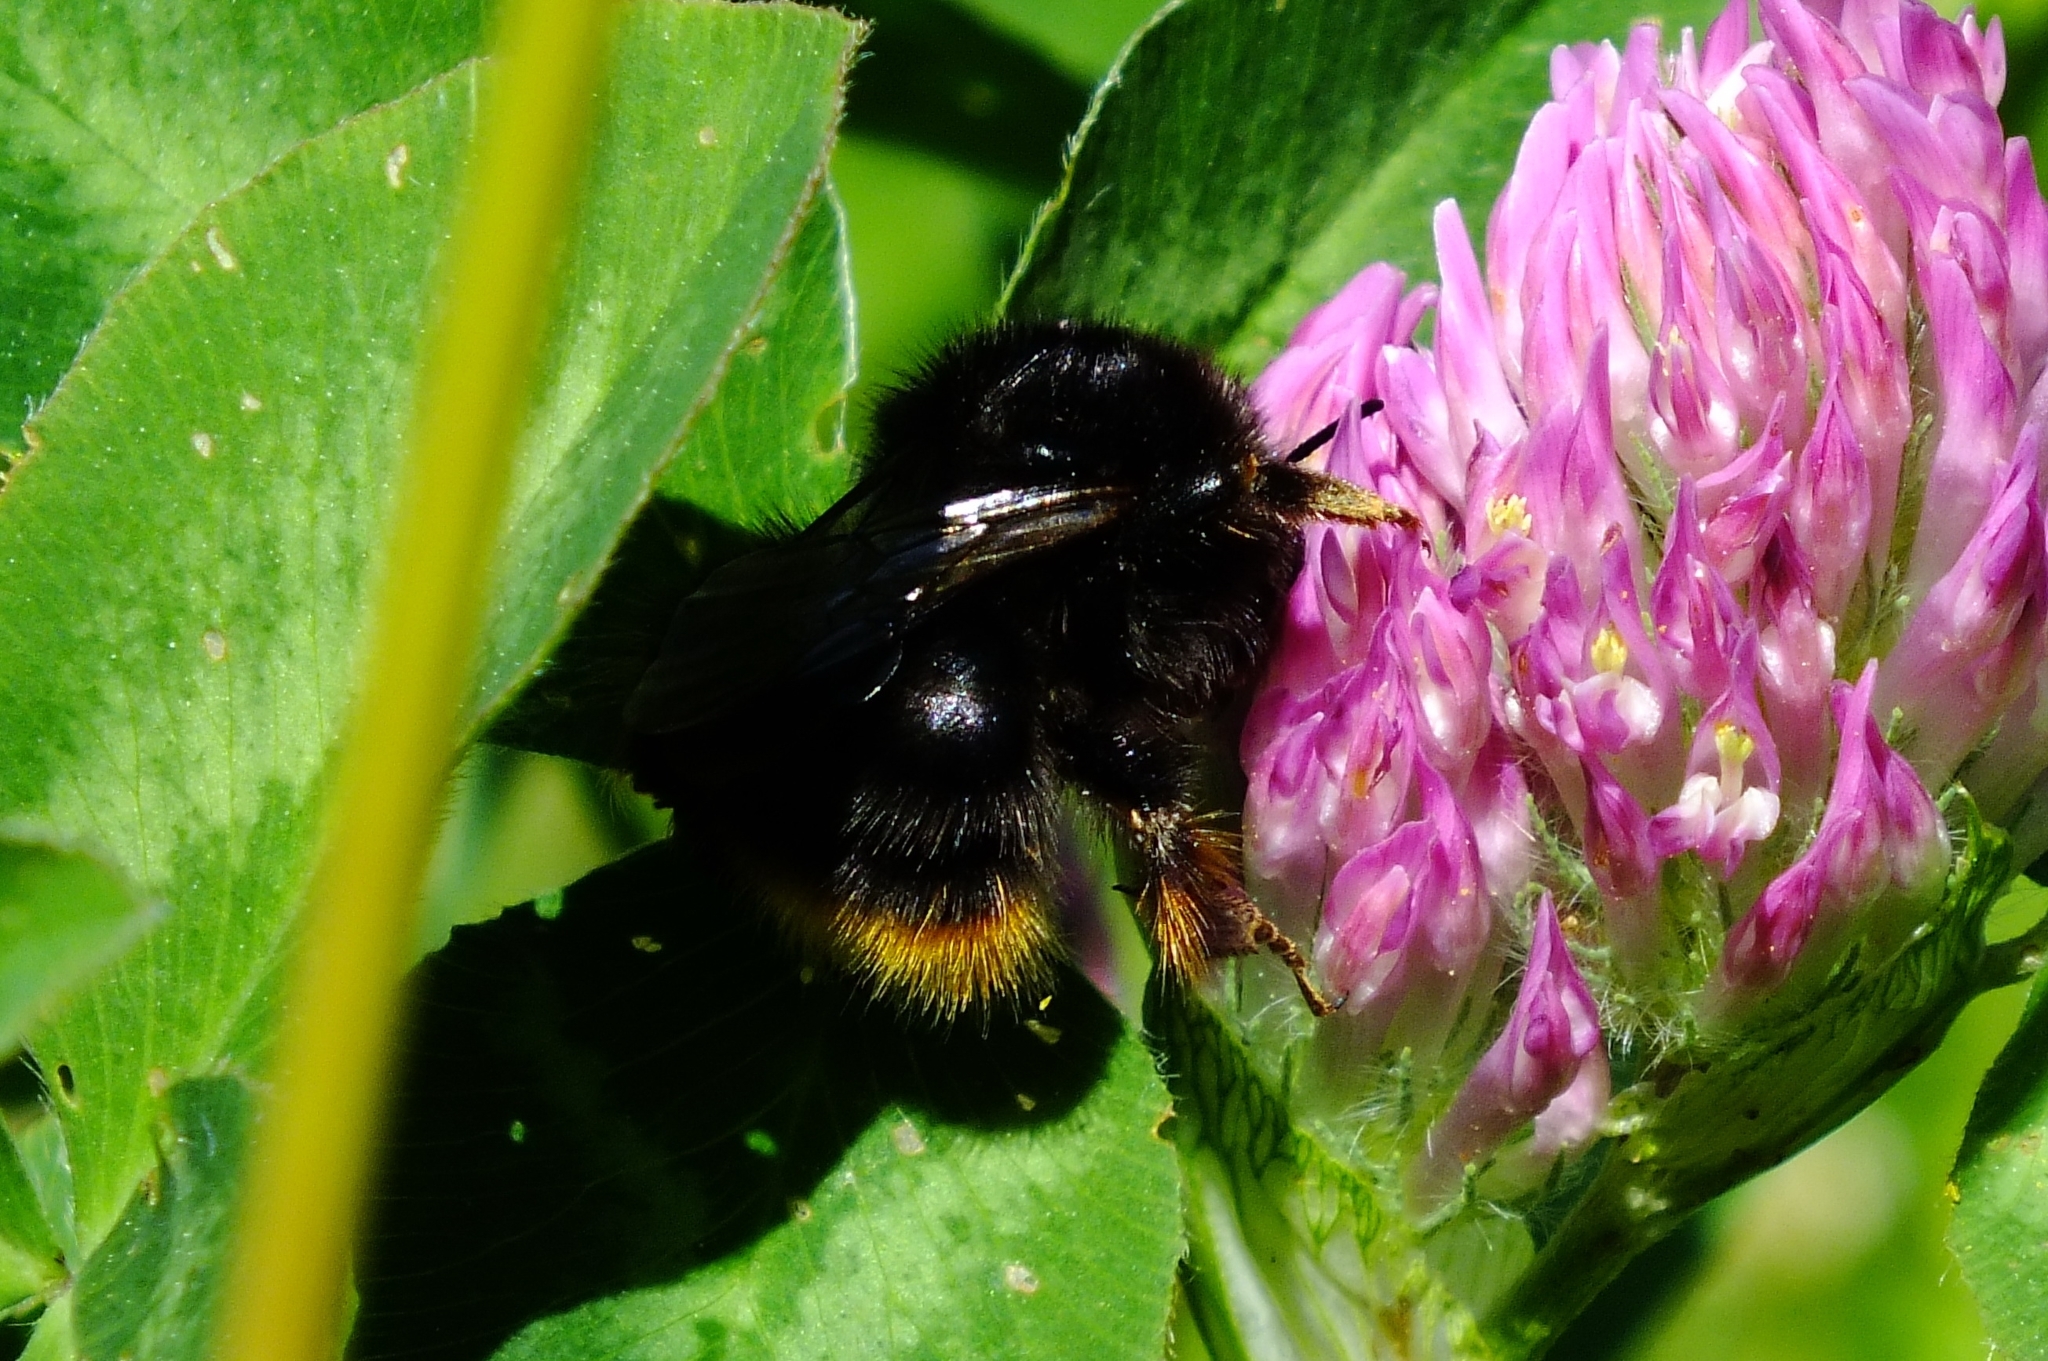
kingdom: Animalia
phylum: Arthropoda
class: Insecta
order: Hymenoptera
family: Apidae
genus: Bombus
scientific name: Bombus ruderarius
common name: Red-shanked carder-bee
